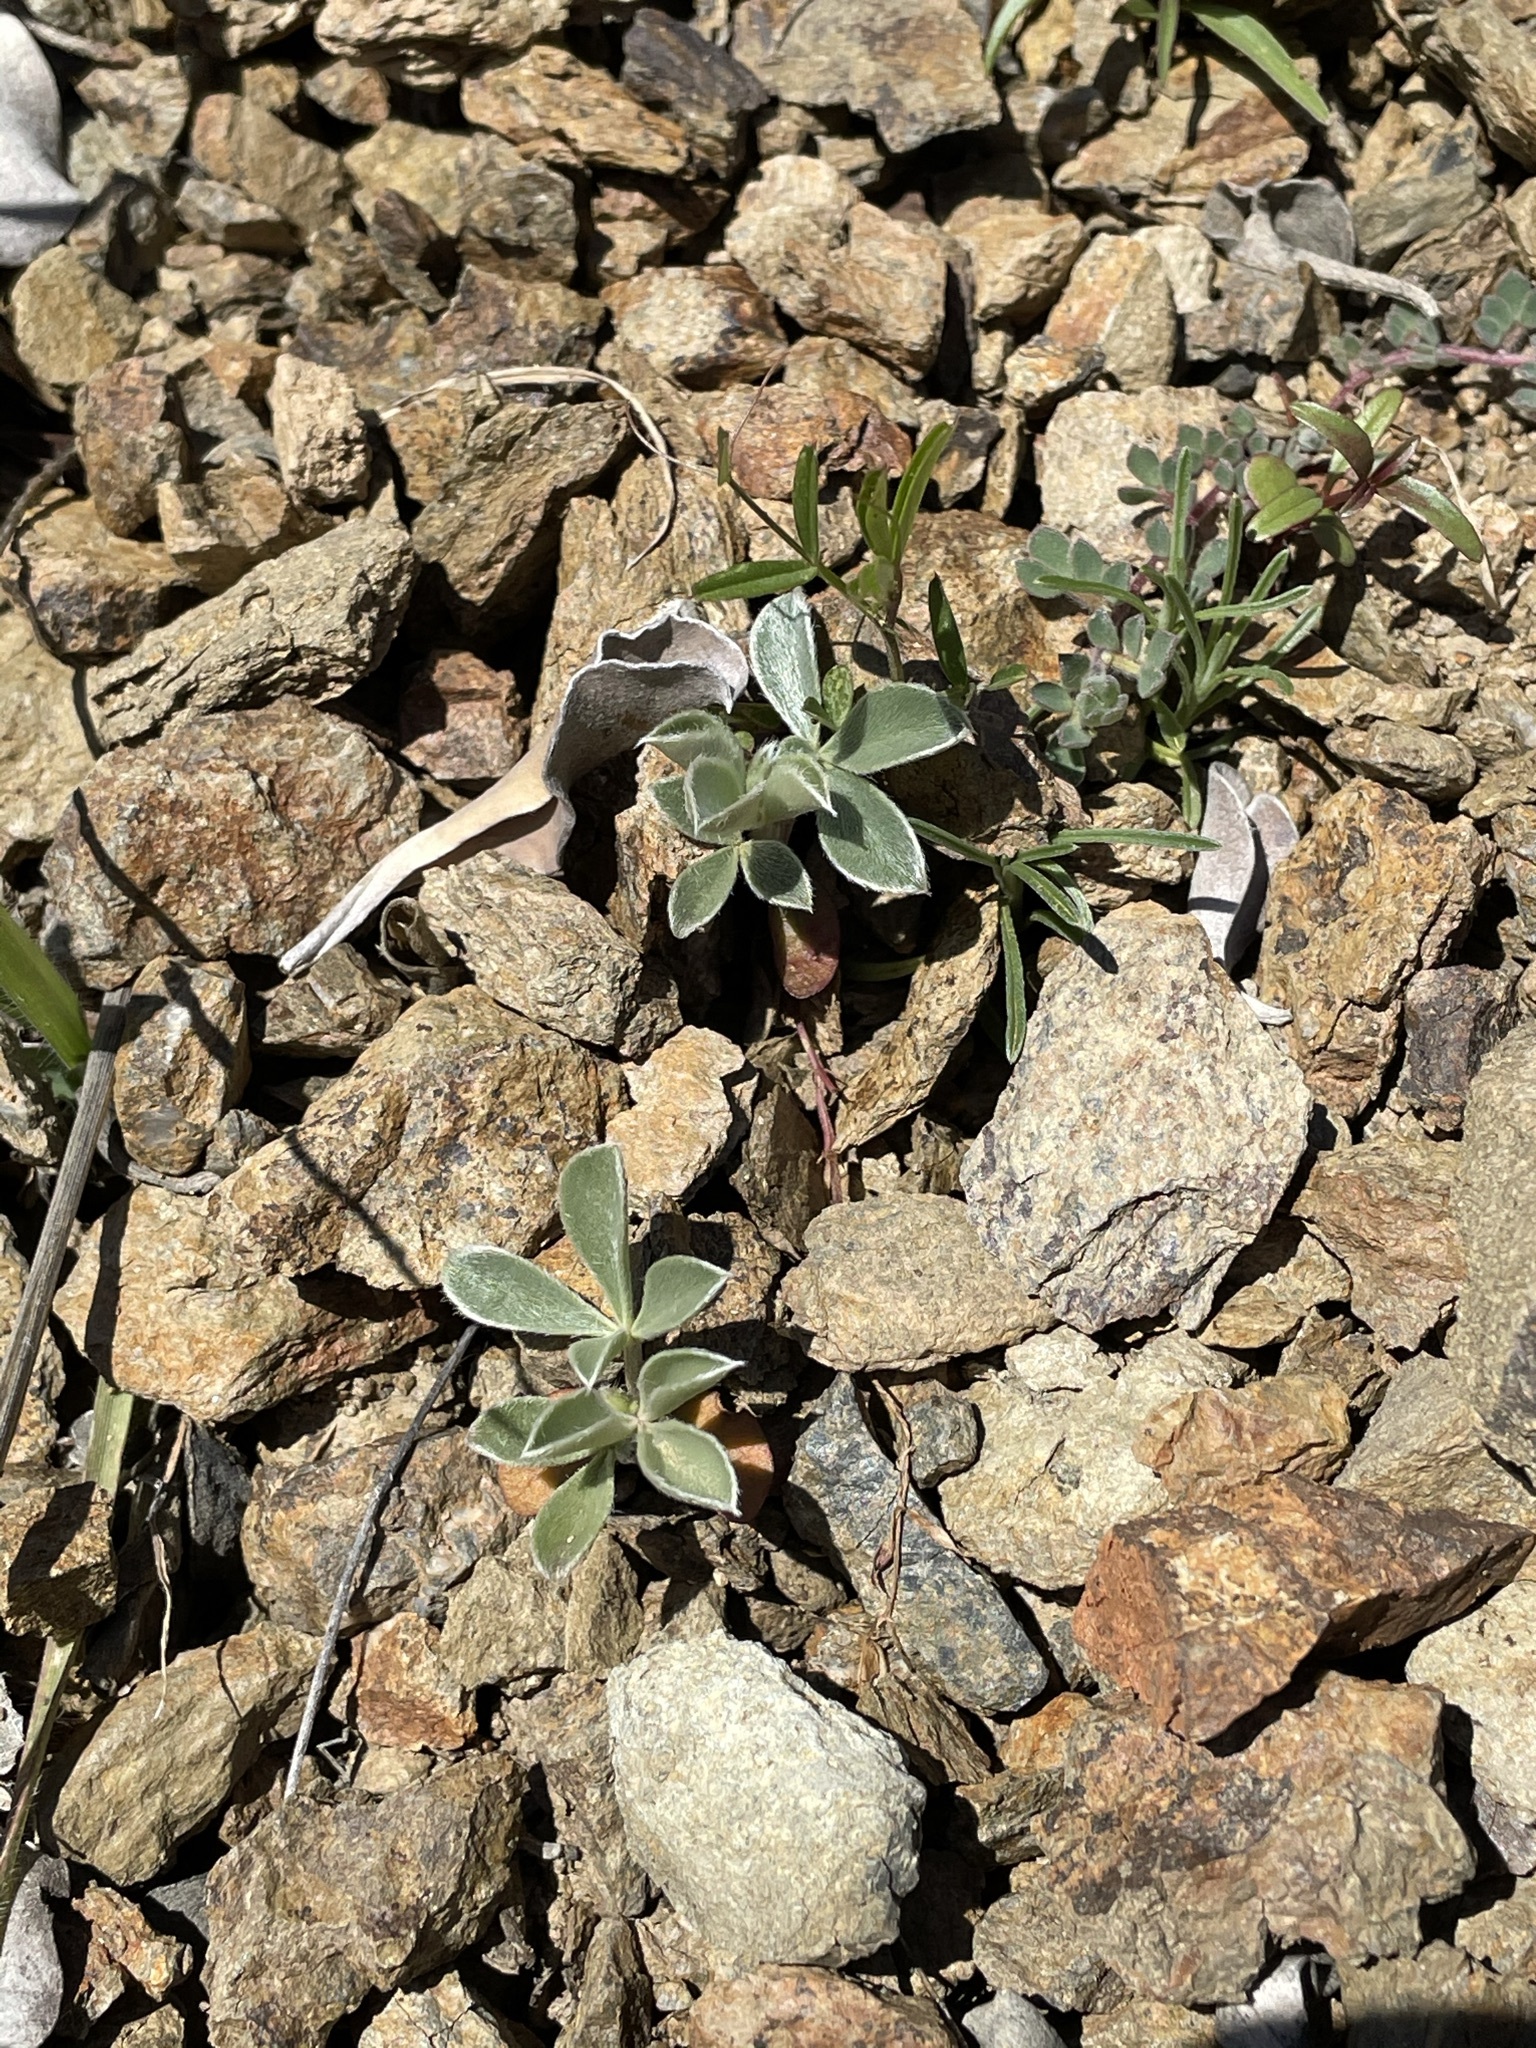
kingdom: Plantae
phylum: Tracheophyta
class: Magnoliopsida
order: Fabales
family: Fabaceae
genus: Lupinus
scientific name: Lupinus sericatus
